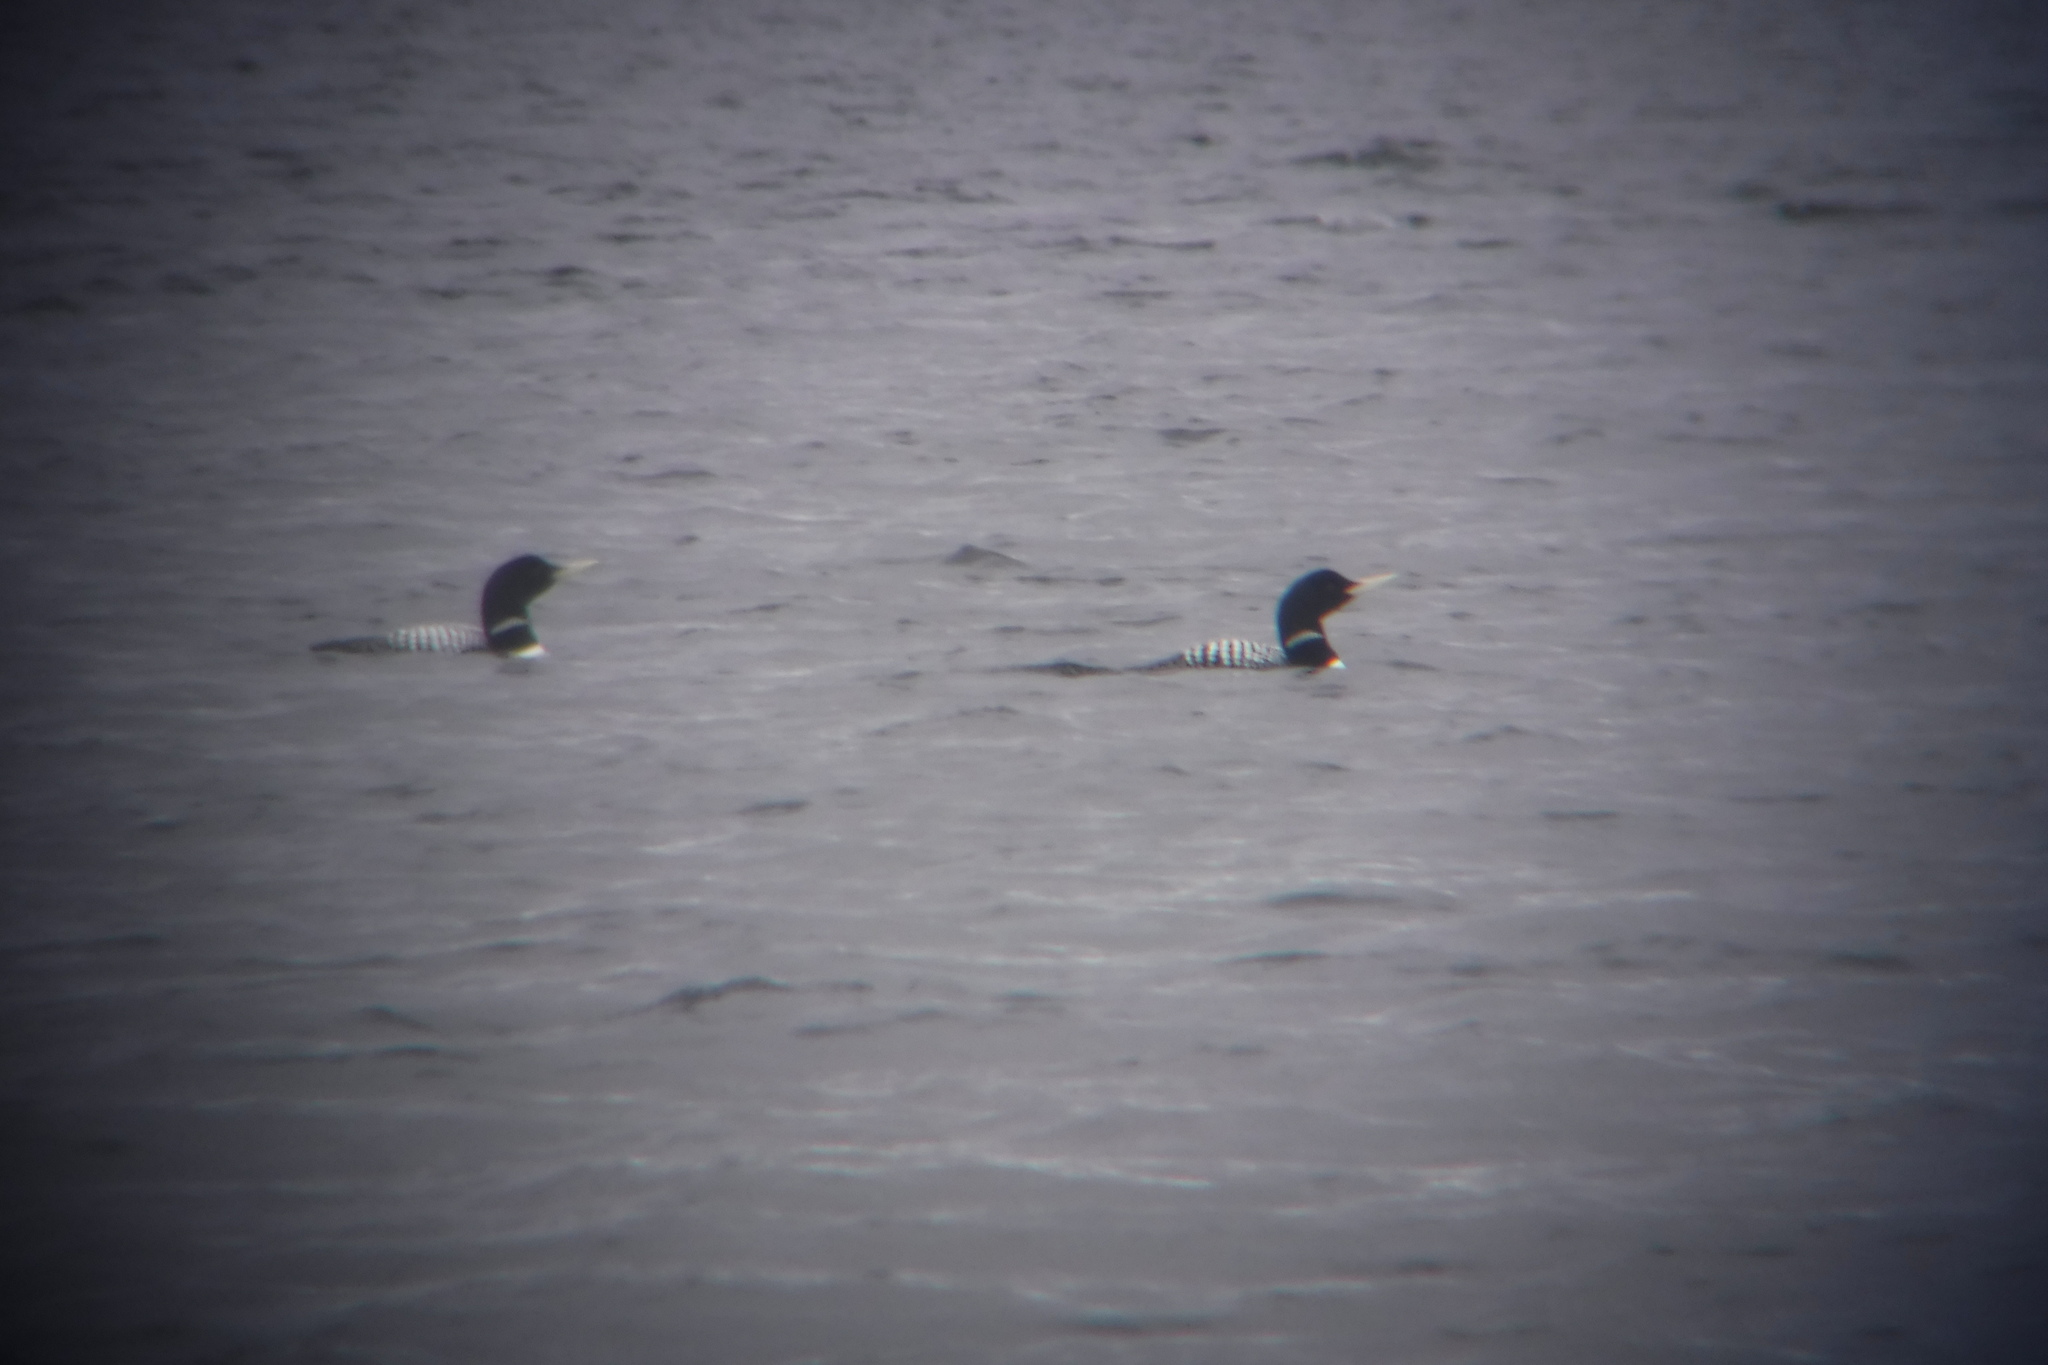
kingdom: Animalia
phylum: Chordata
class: Aves
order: Gaviiformes
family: Gaviidae
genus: Gavia
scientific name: Gavia adamsii
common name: Yellow-billed loon
